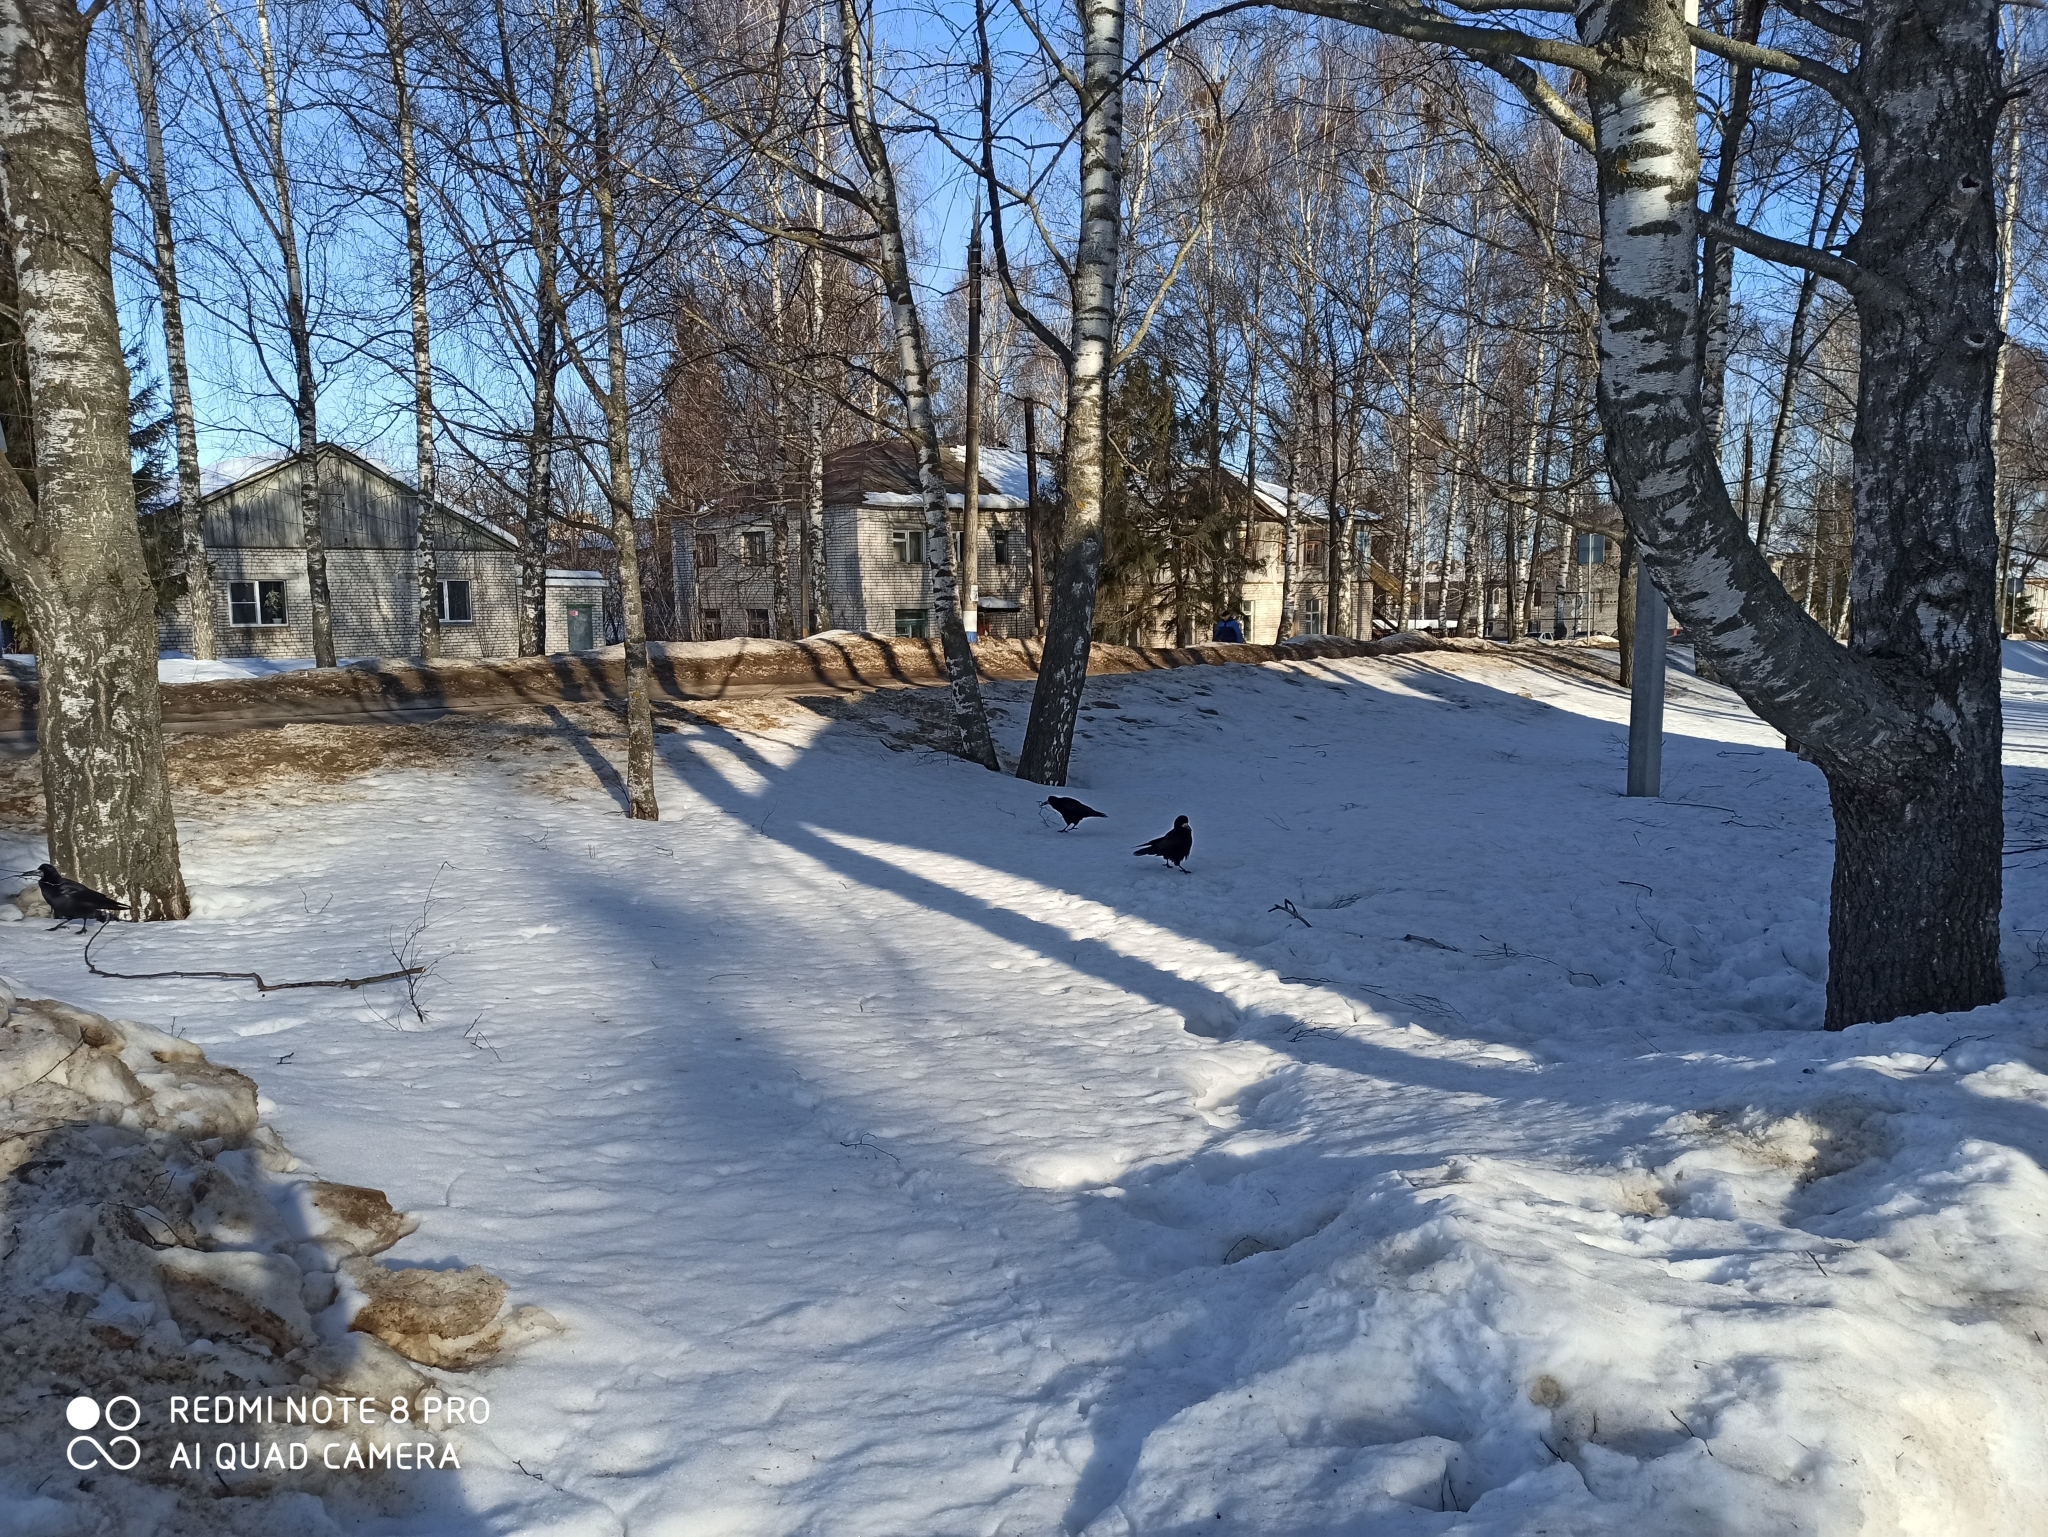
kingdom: Animalia
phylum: Chordata
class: Aves
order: Passeriformes
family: Corvidae
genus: Corvus
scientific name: Corvus frugilegus
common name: Rook
